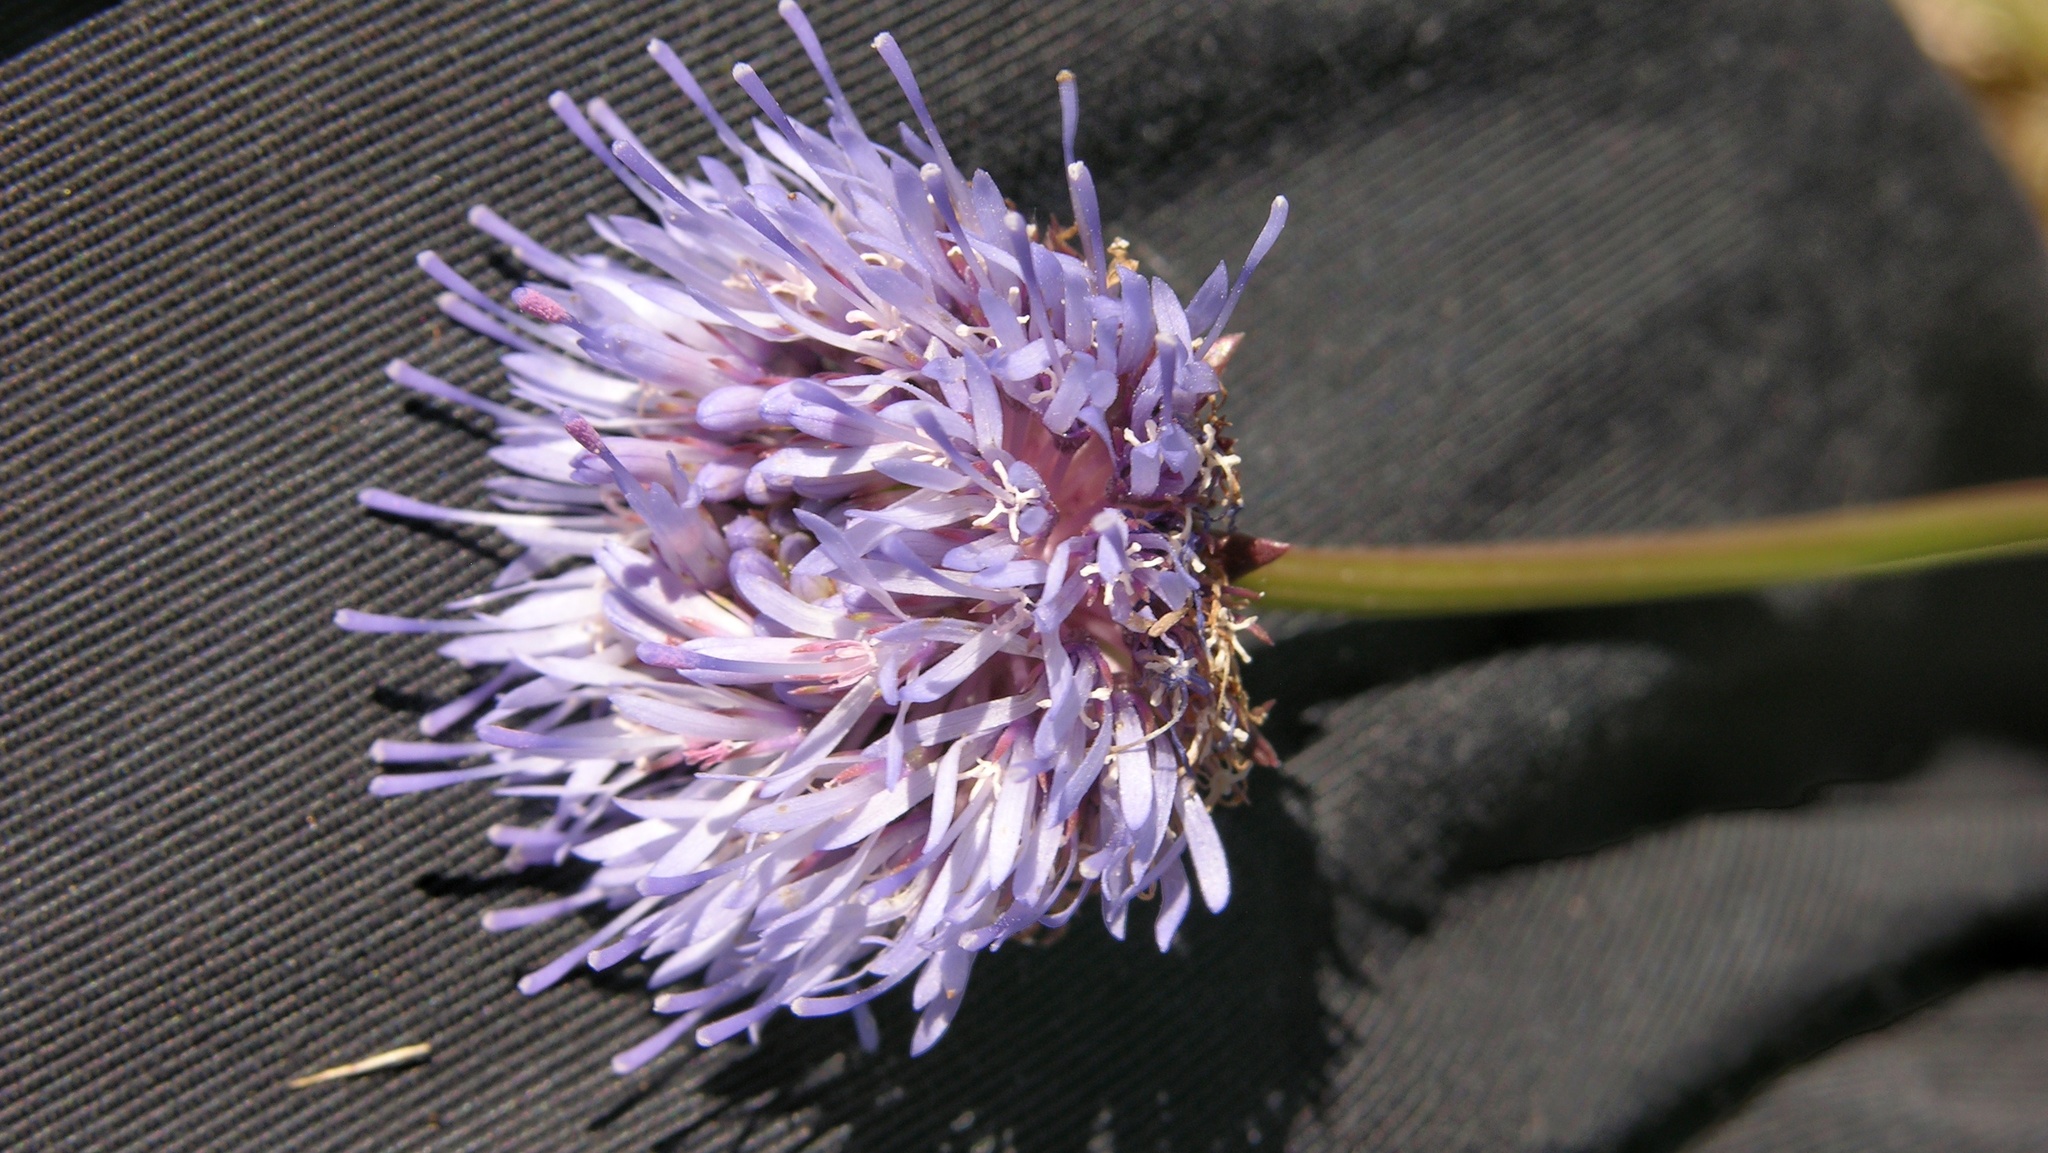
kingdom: Plantae
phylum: Tracheophyta
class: Magnoliopsida
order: Asterales
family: Campanulaceae
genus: Jasione
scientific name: Jasione montana
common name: Sheep's-bit
